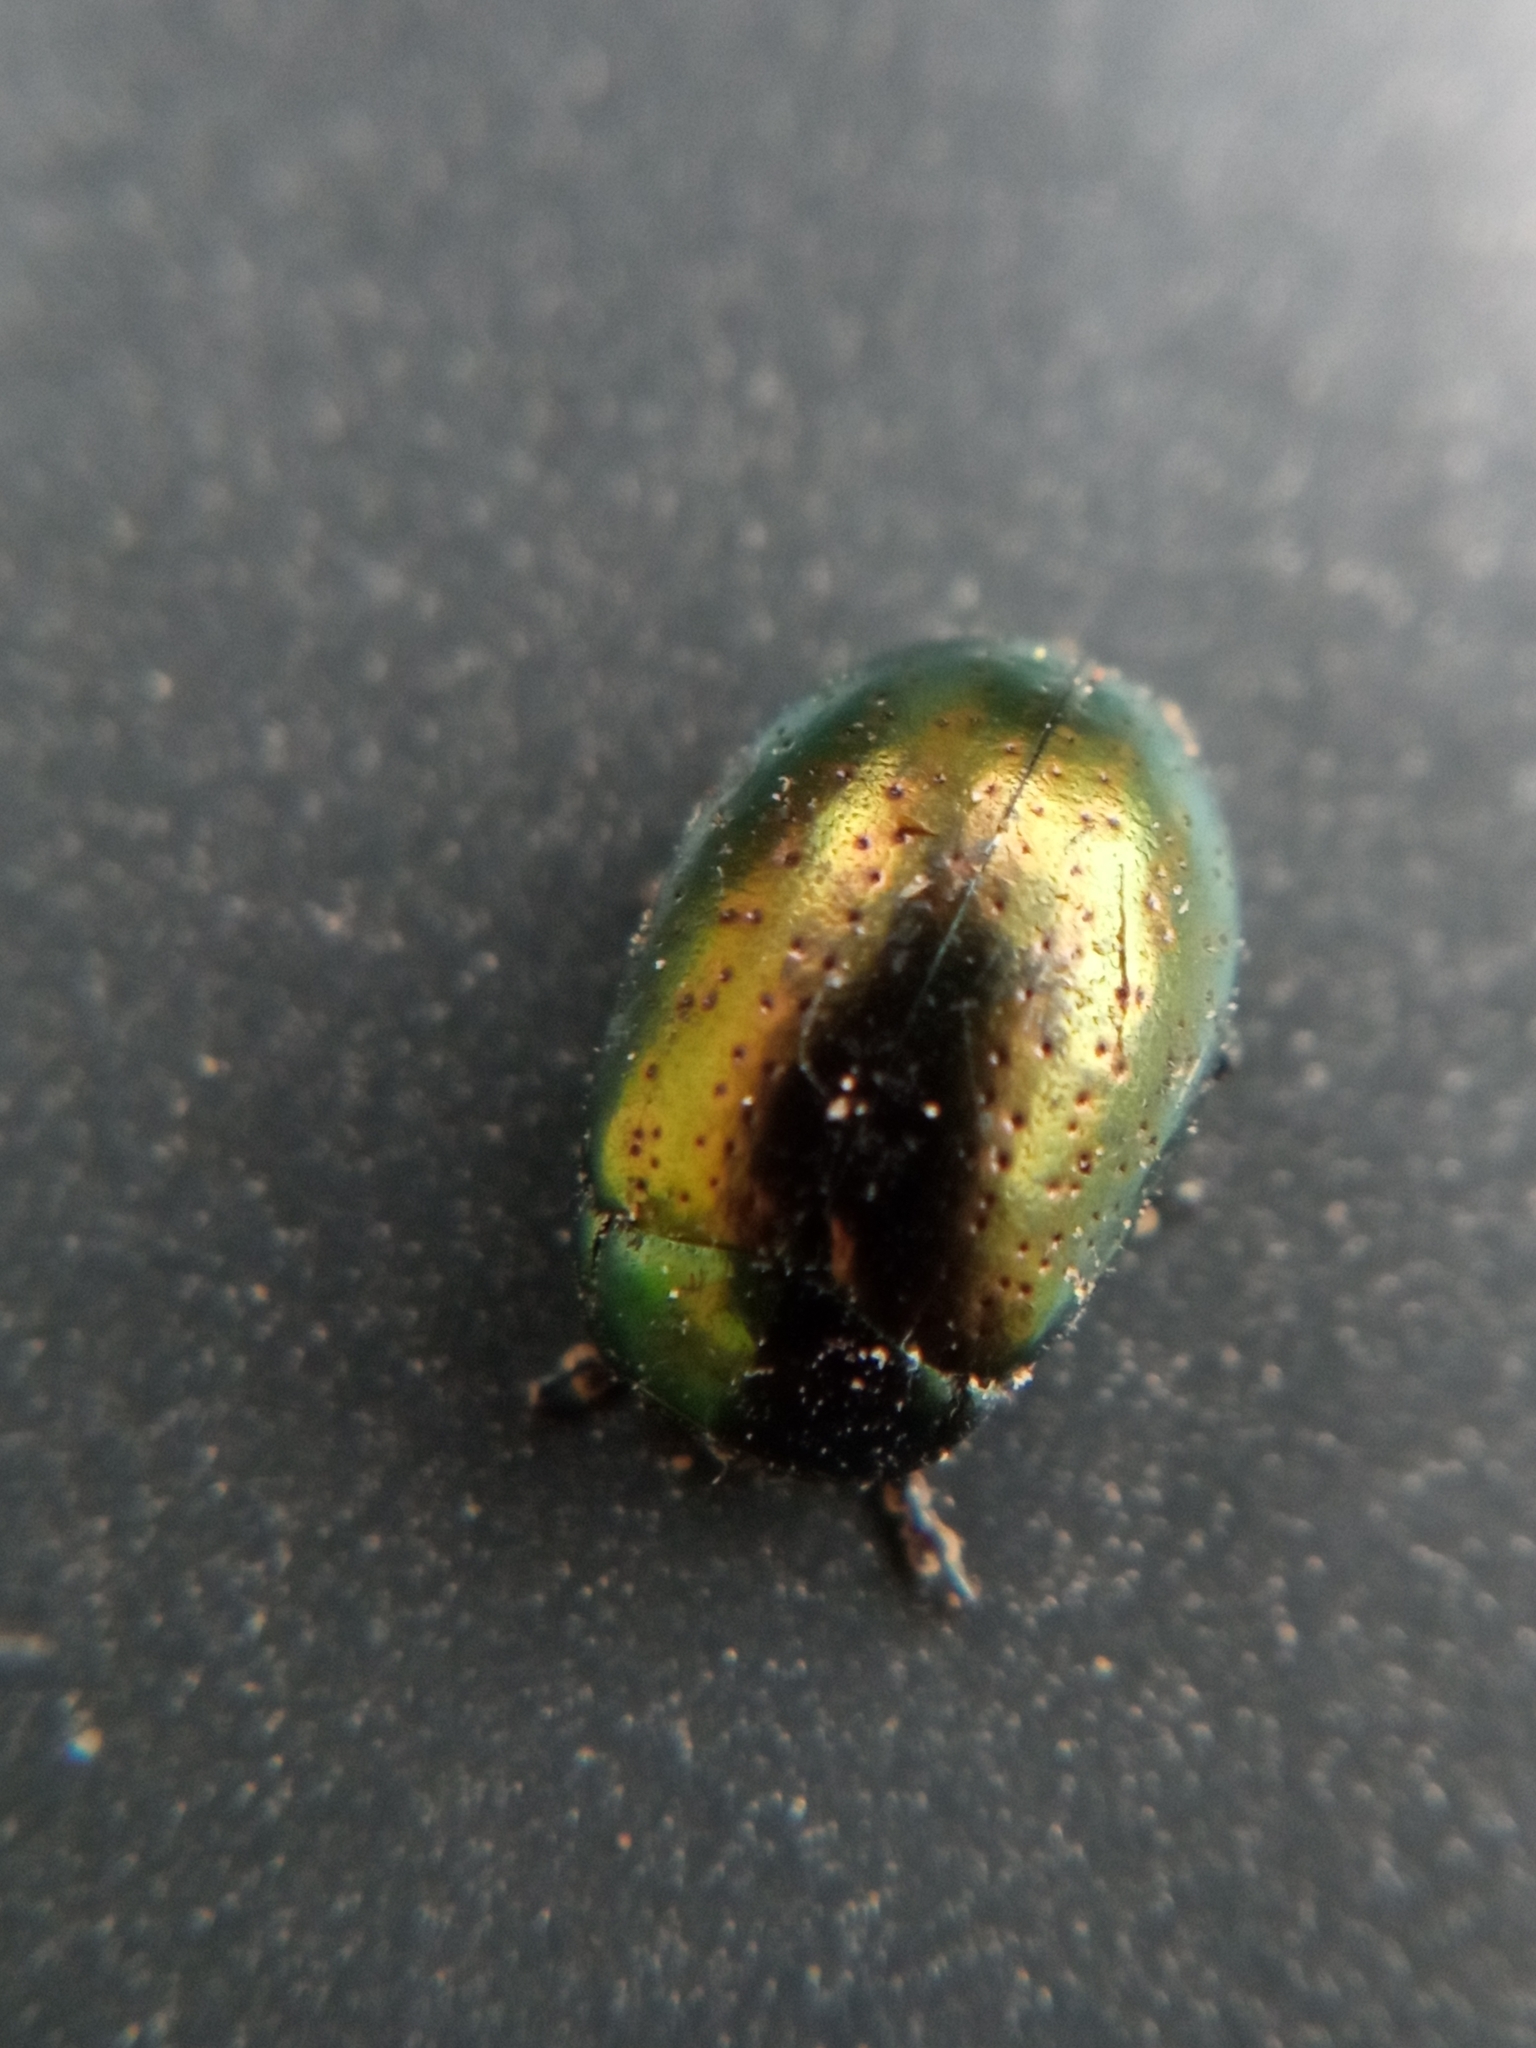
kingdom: Animalia
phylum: Arthropoda
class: Insecta
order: Coleoptera
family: Chrysomelidae
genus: Chrysolina
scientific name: Chrysolina hyperici
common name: St. johnswort beetle
